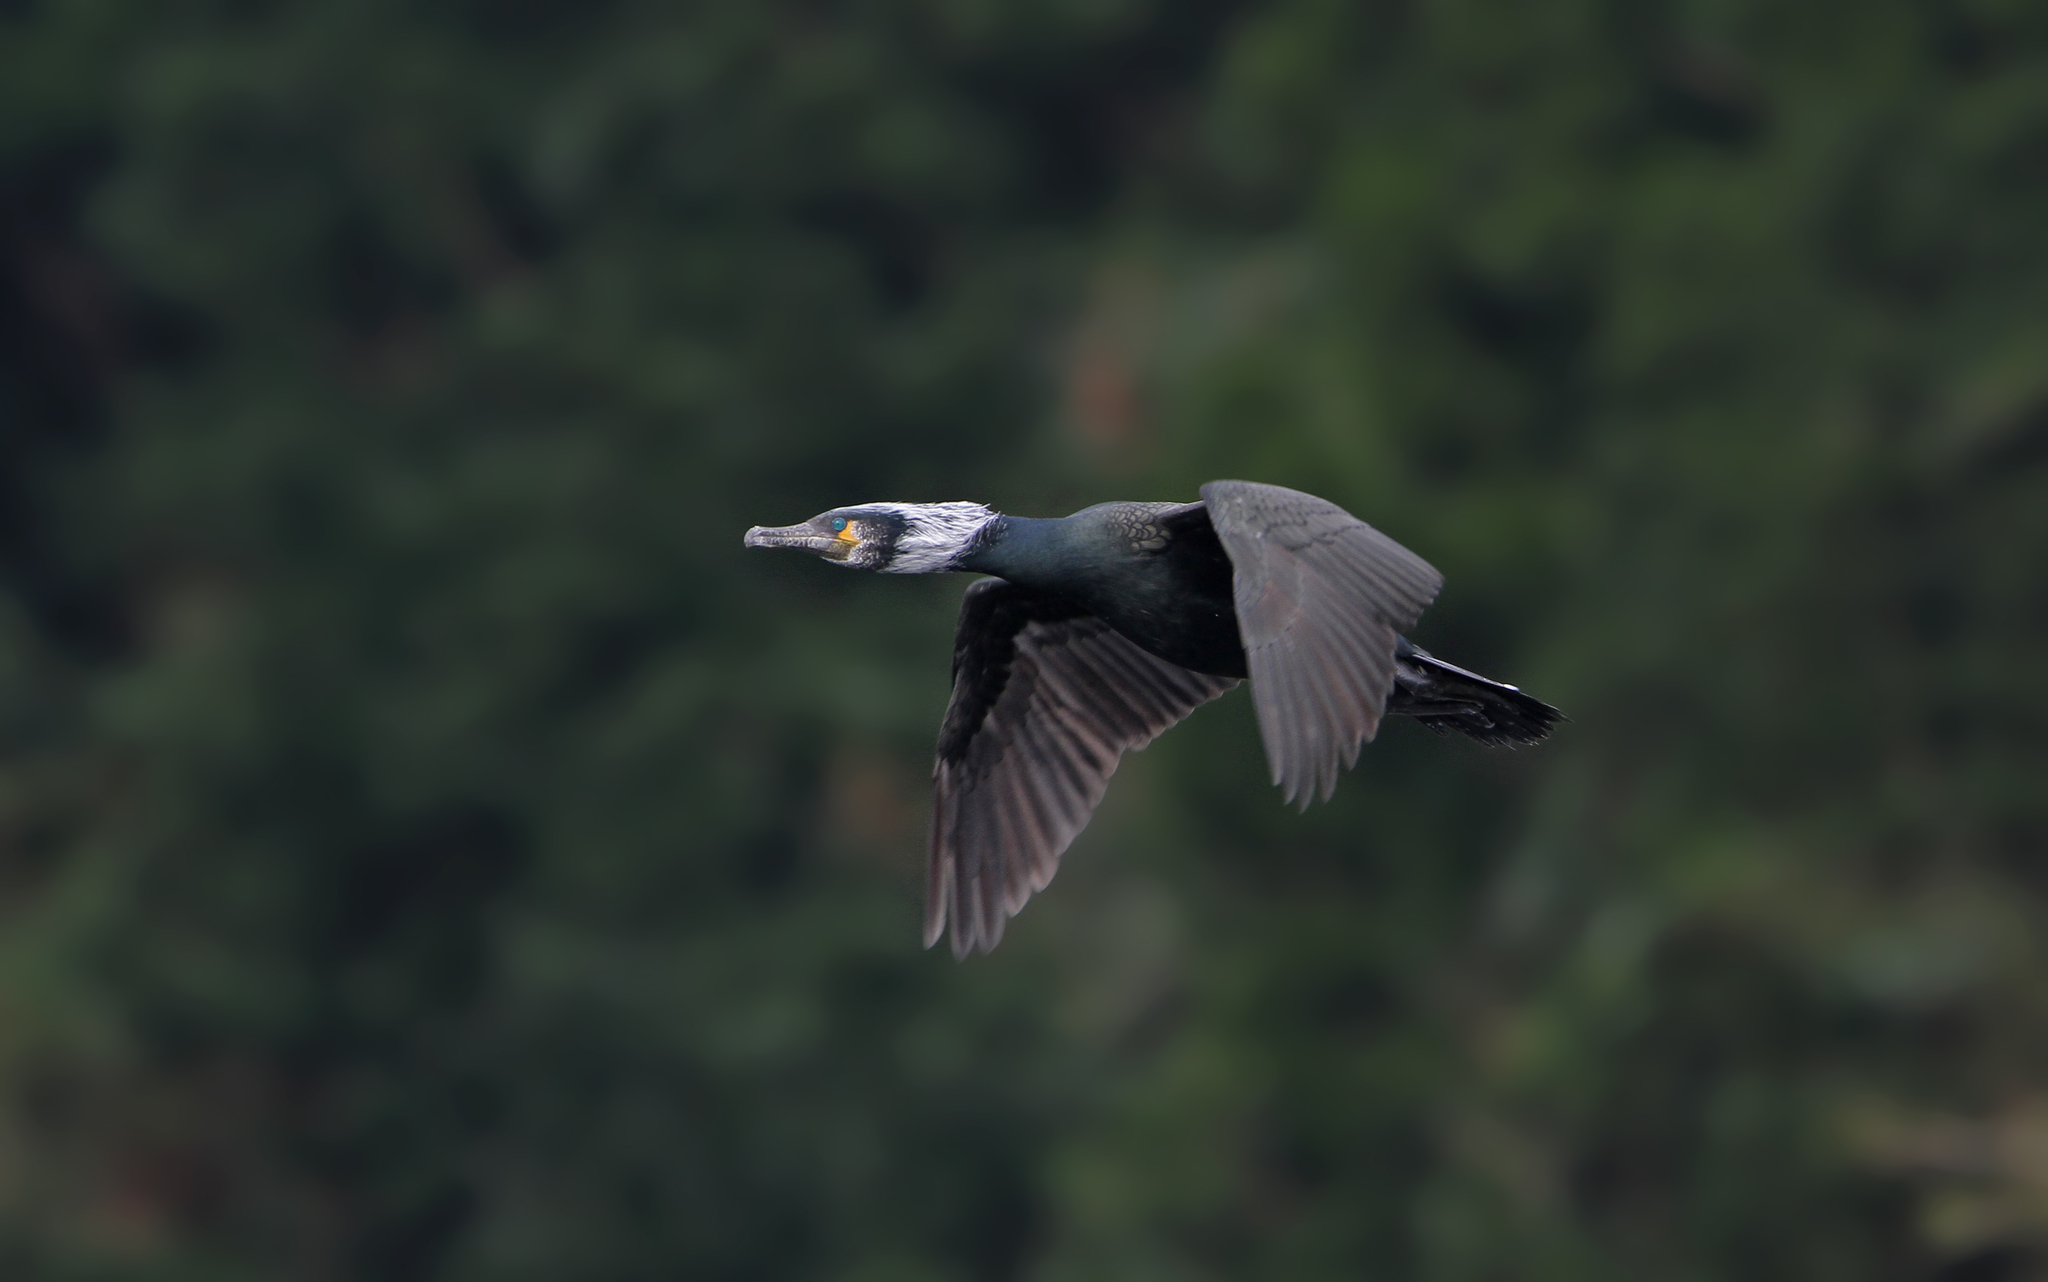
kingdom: Animalia
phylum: Chordata
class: Aves
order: Suliformes
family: Phalacrocoracidae
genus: Phalacrocorax
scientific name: Phalacrocorax capillatus
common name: Japanese cormorant
